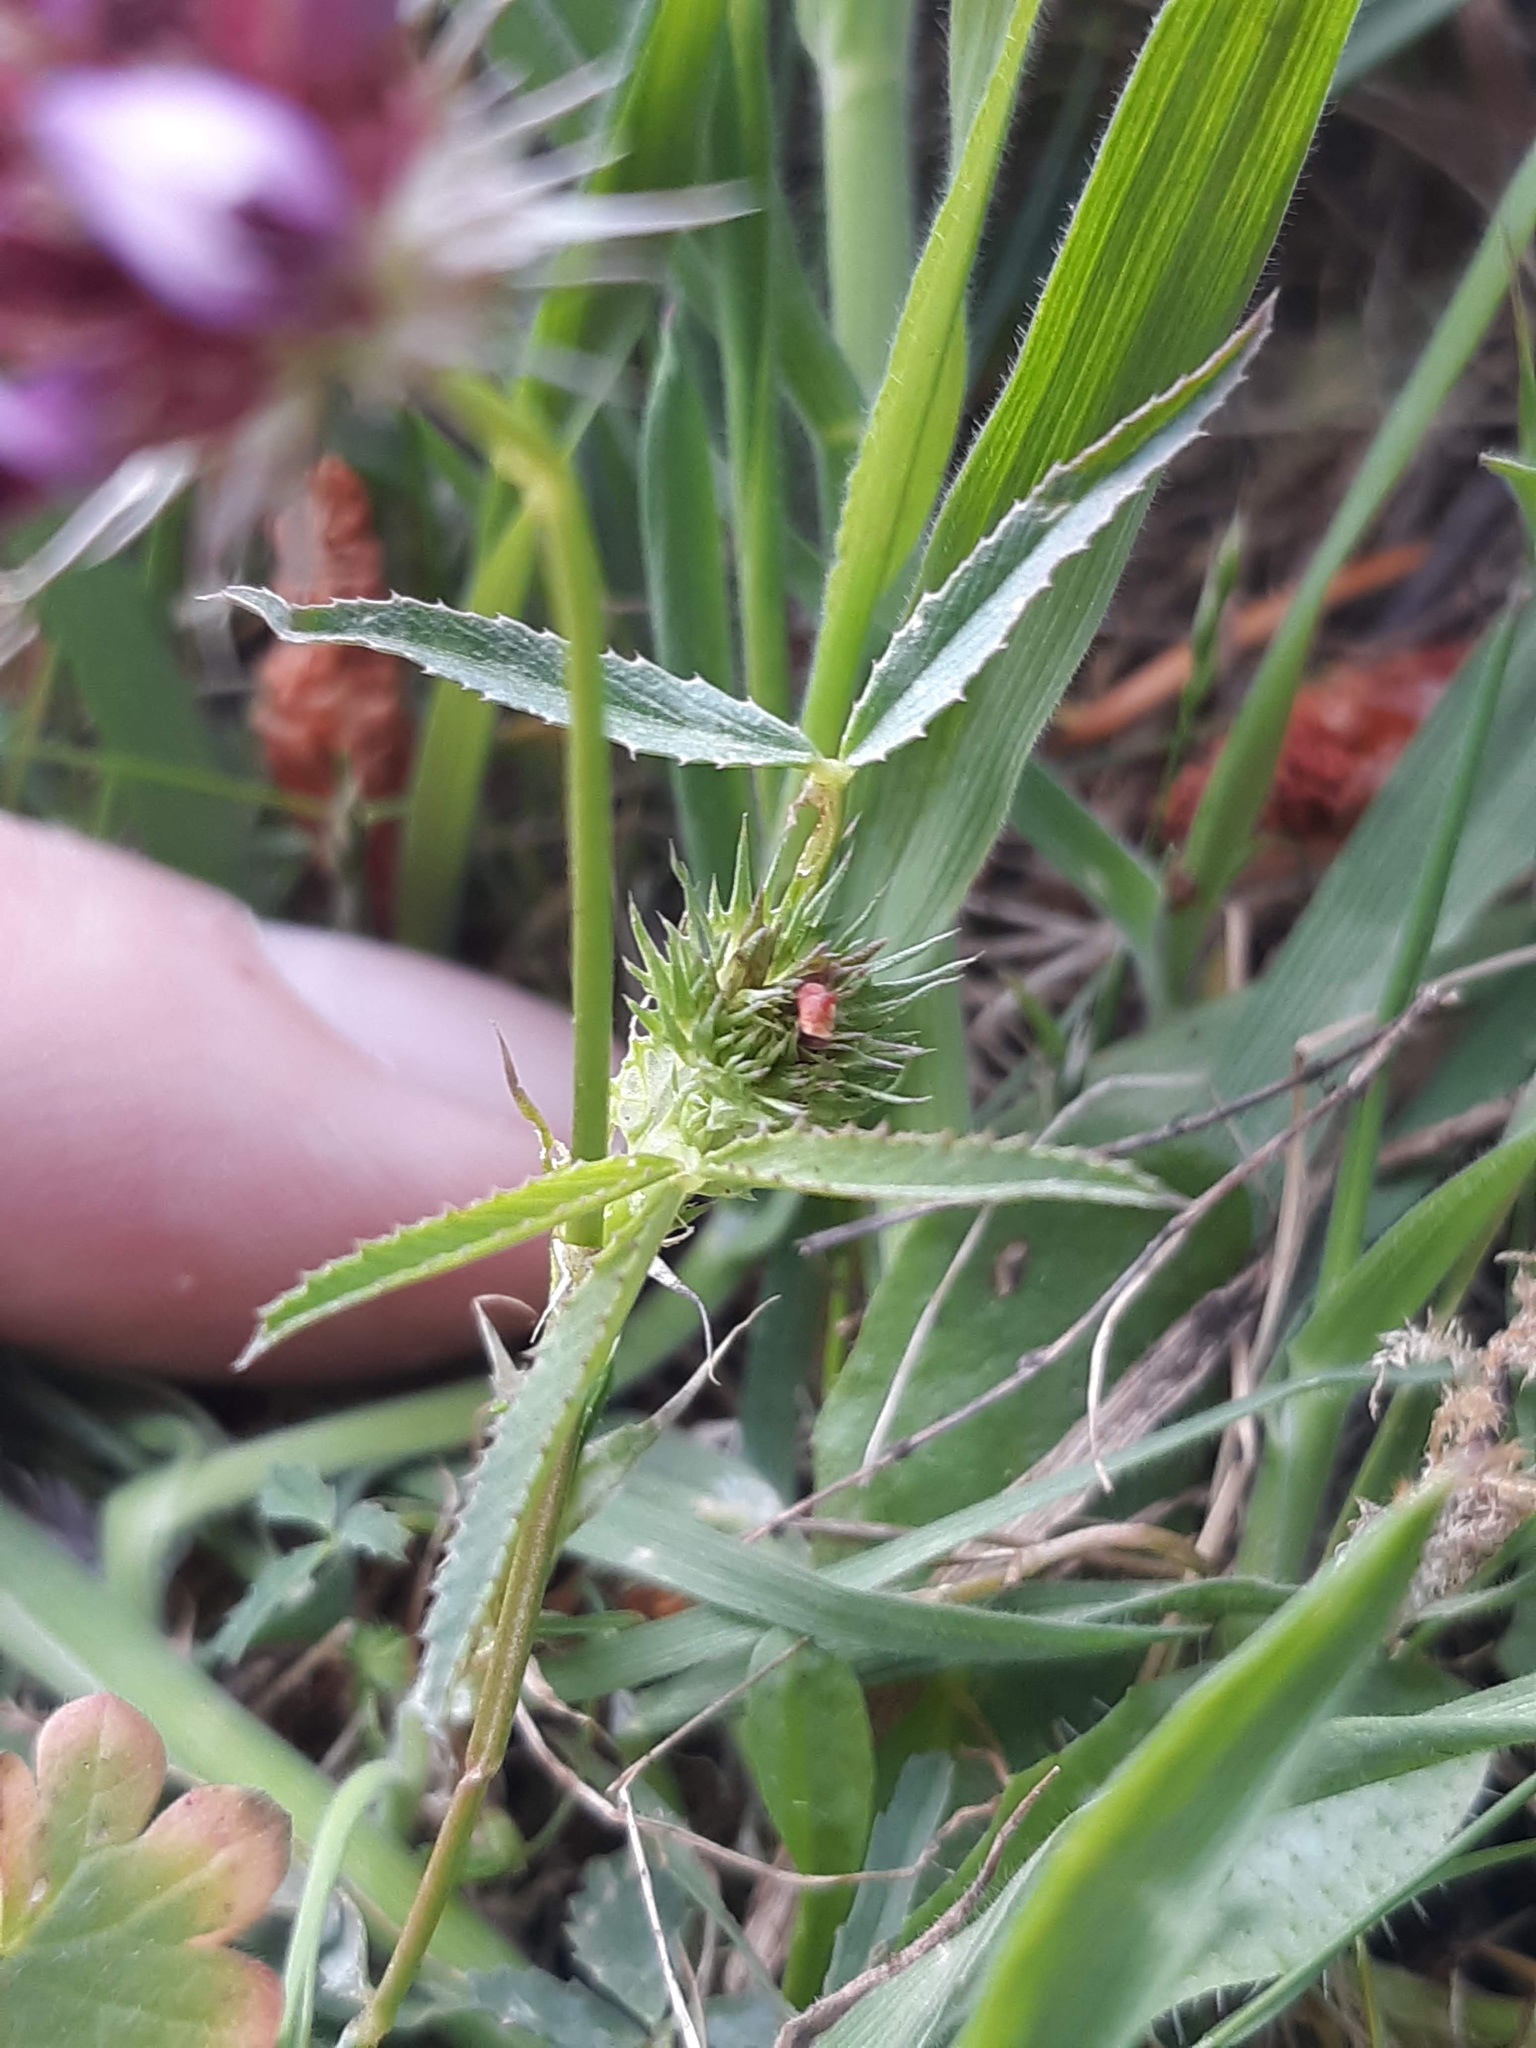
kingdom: Plantae
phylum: Tracheophyta
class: Magnoliopsida
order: Fabales
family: Fabaceae
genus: Trifolium
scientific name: Trifolium willdenovii
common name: Tomcat clover
